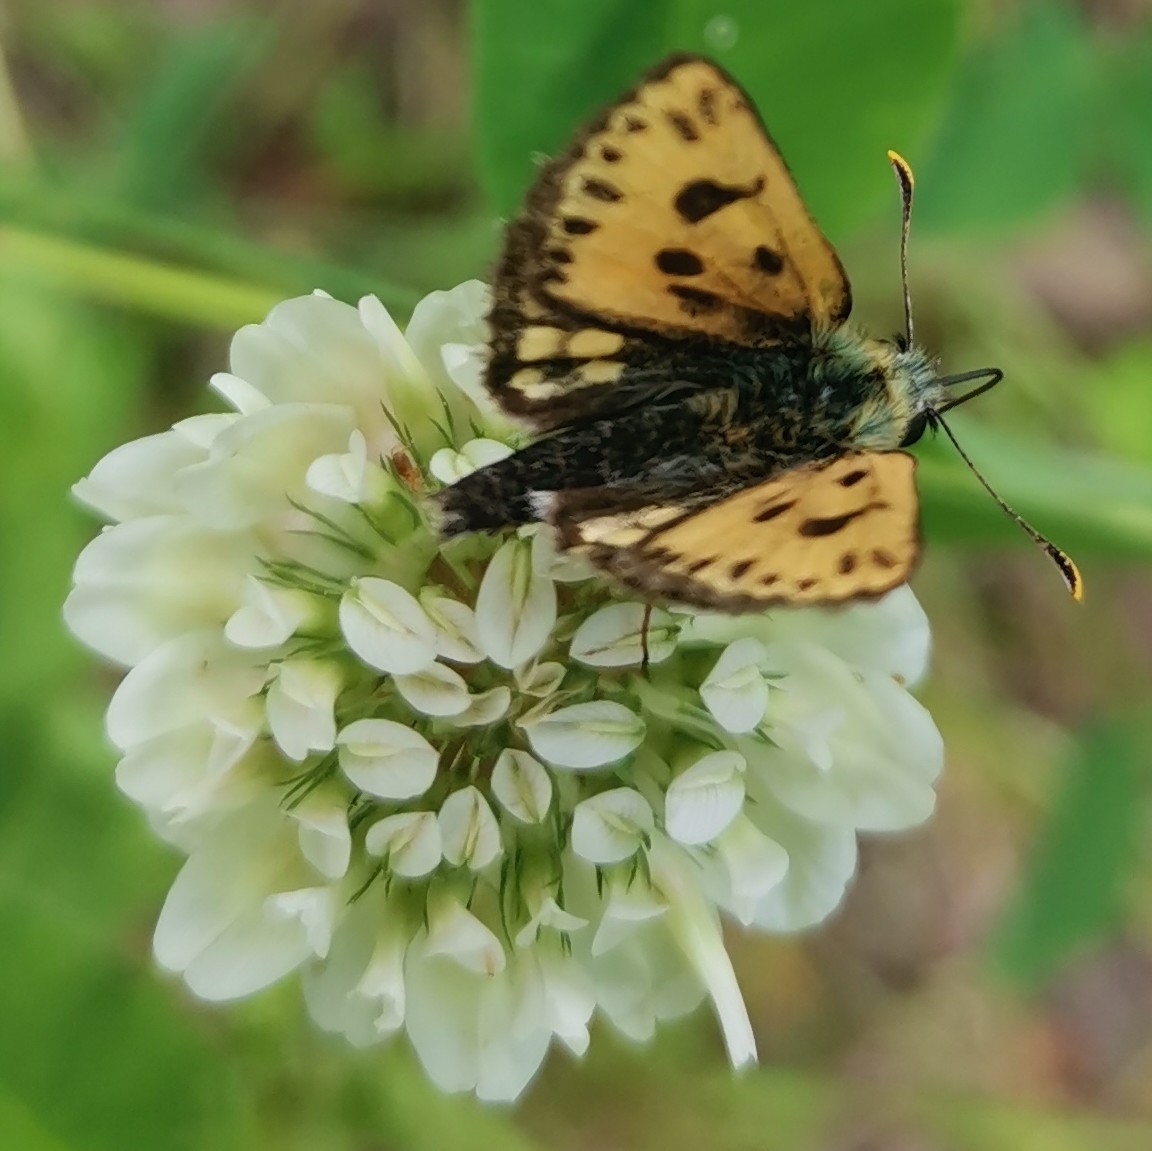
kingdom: Animalia
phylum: Arthropoda
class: Insecta
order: Lepidoptera
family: Hesperiidae
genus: Carterocephalus
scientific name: Carterocephalus silvicola
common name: Northern chequered skipper
